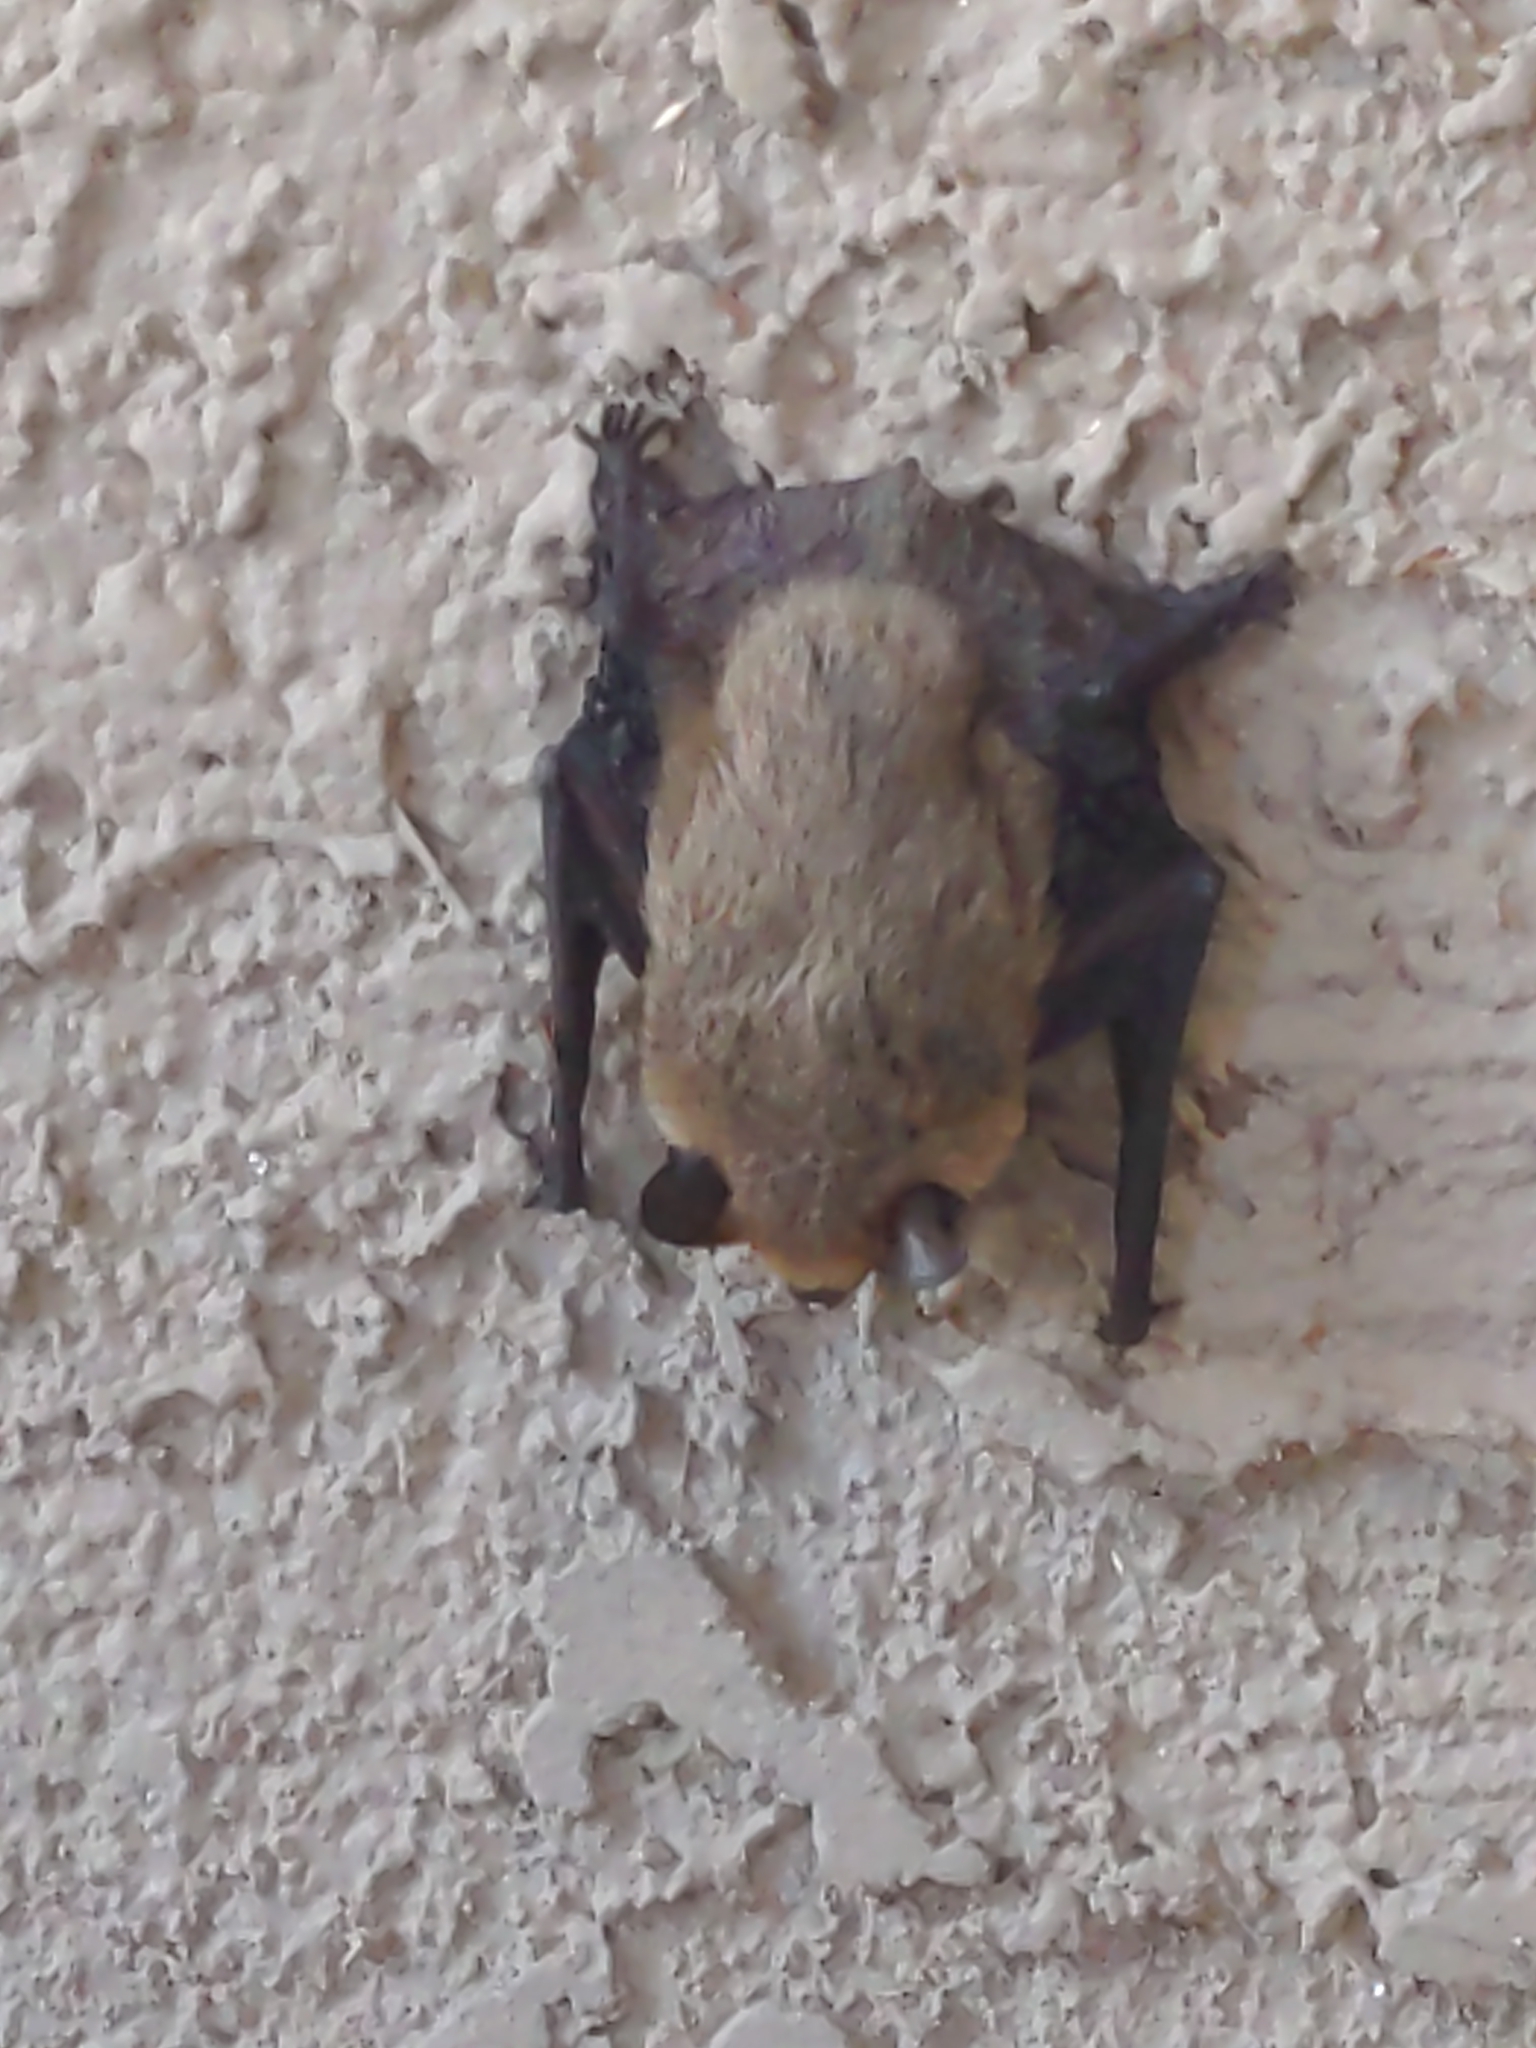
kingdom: Animalia
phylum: Chordata
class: Mammalia
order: Chiroptera
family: Vespertilionidae
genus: Parastrellus
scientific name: Parastrellus hesperus
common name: Canyon bat
